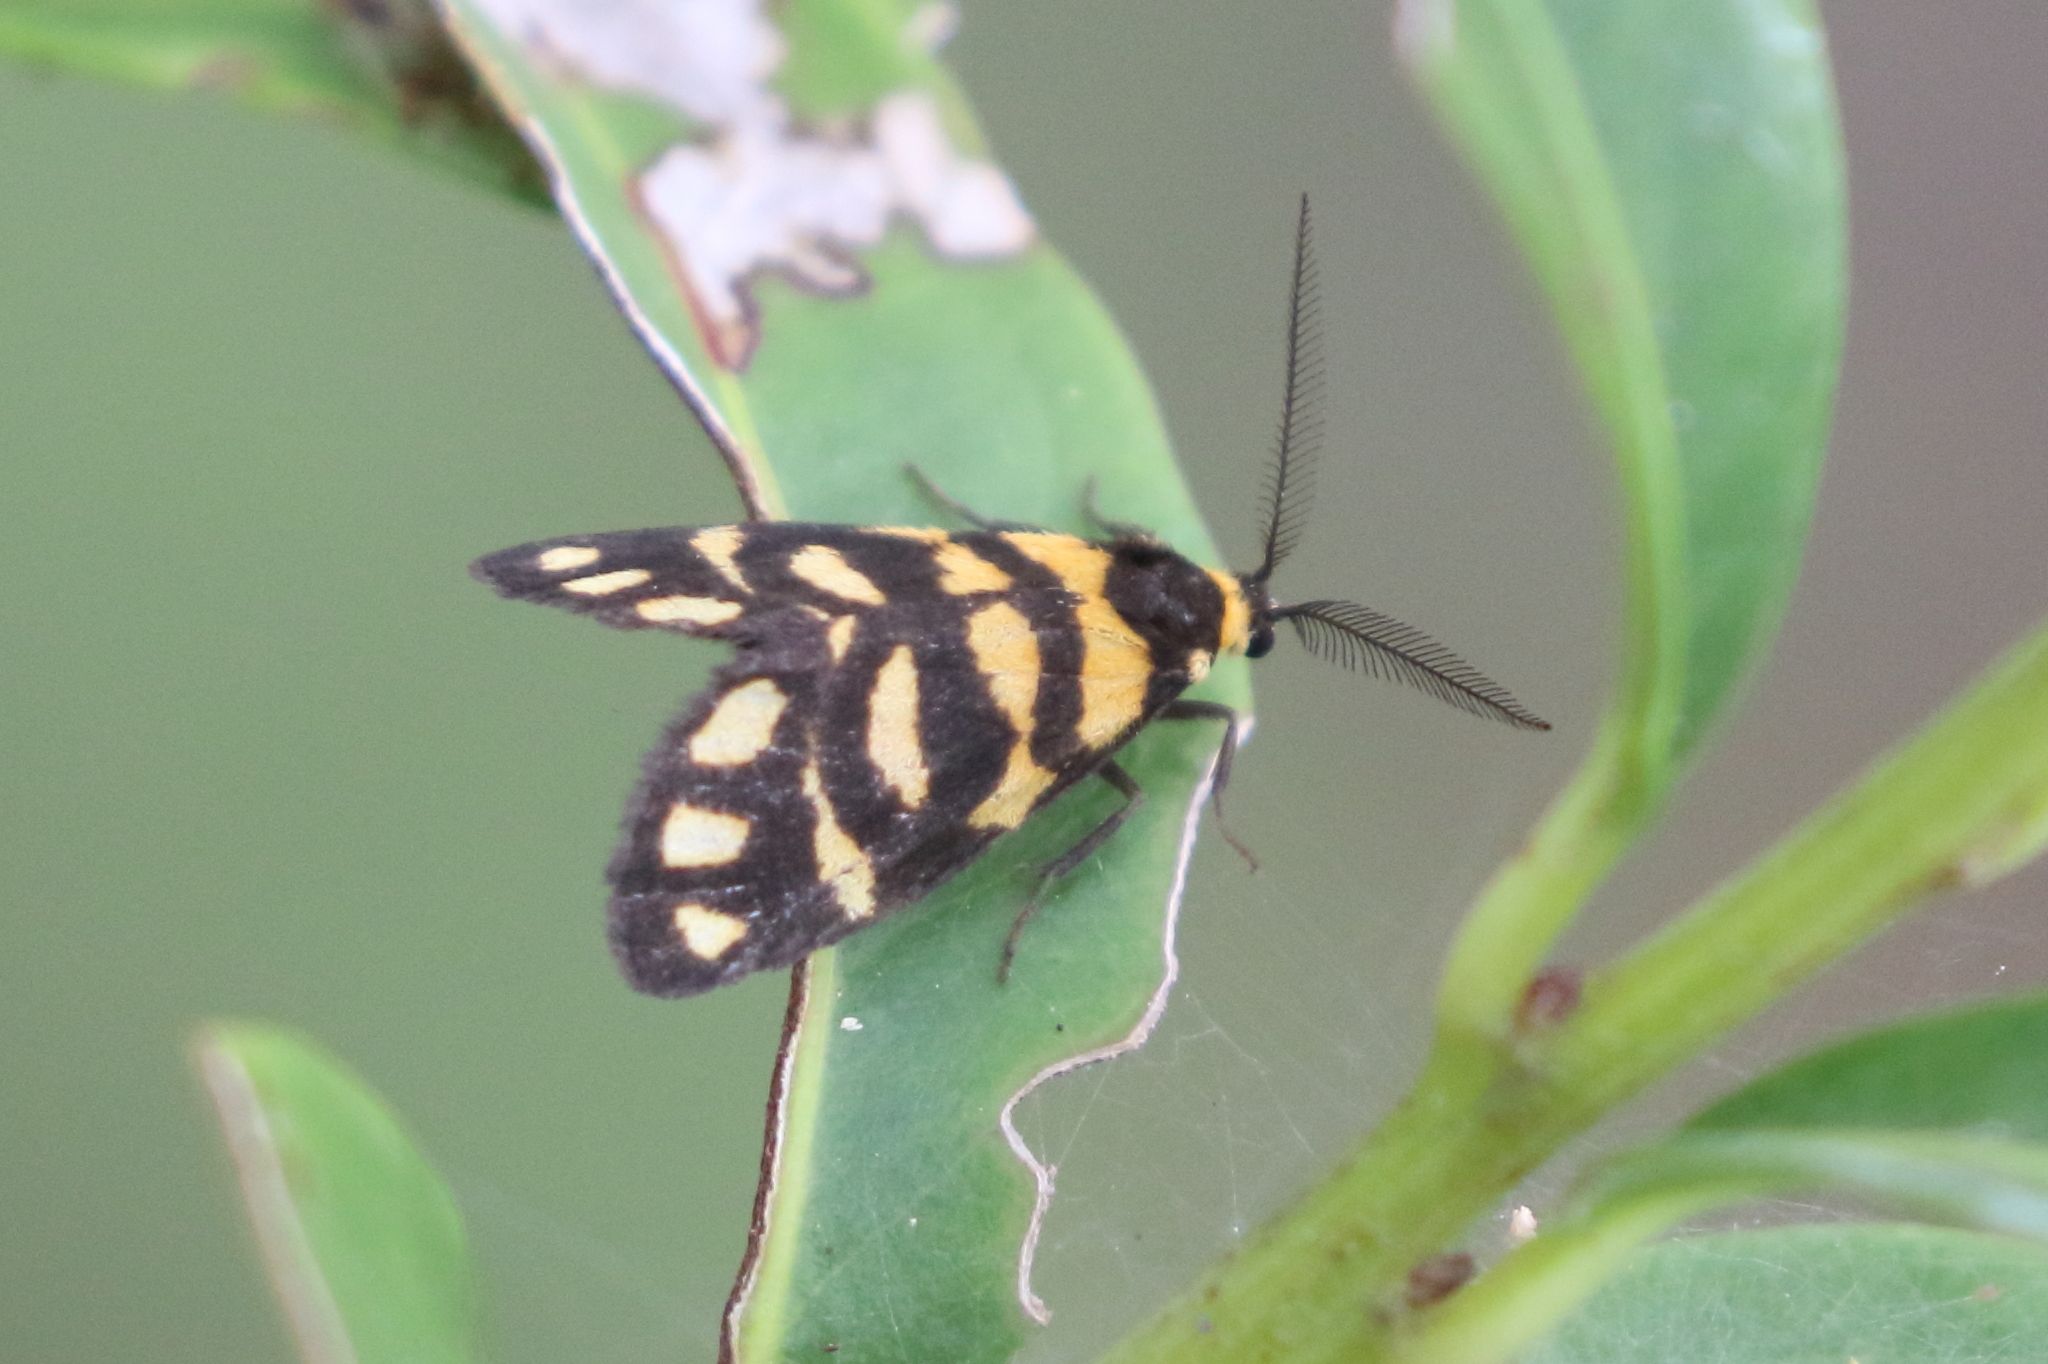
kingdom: Animalia
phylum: Arthropoda
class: Insecta
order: Lepidoptera
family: Erebidae
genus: Asura
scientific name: Asura lydia
